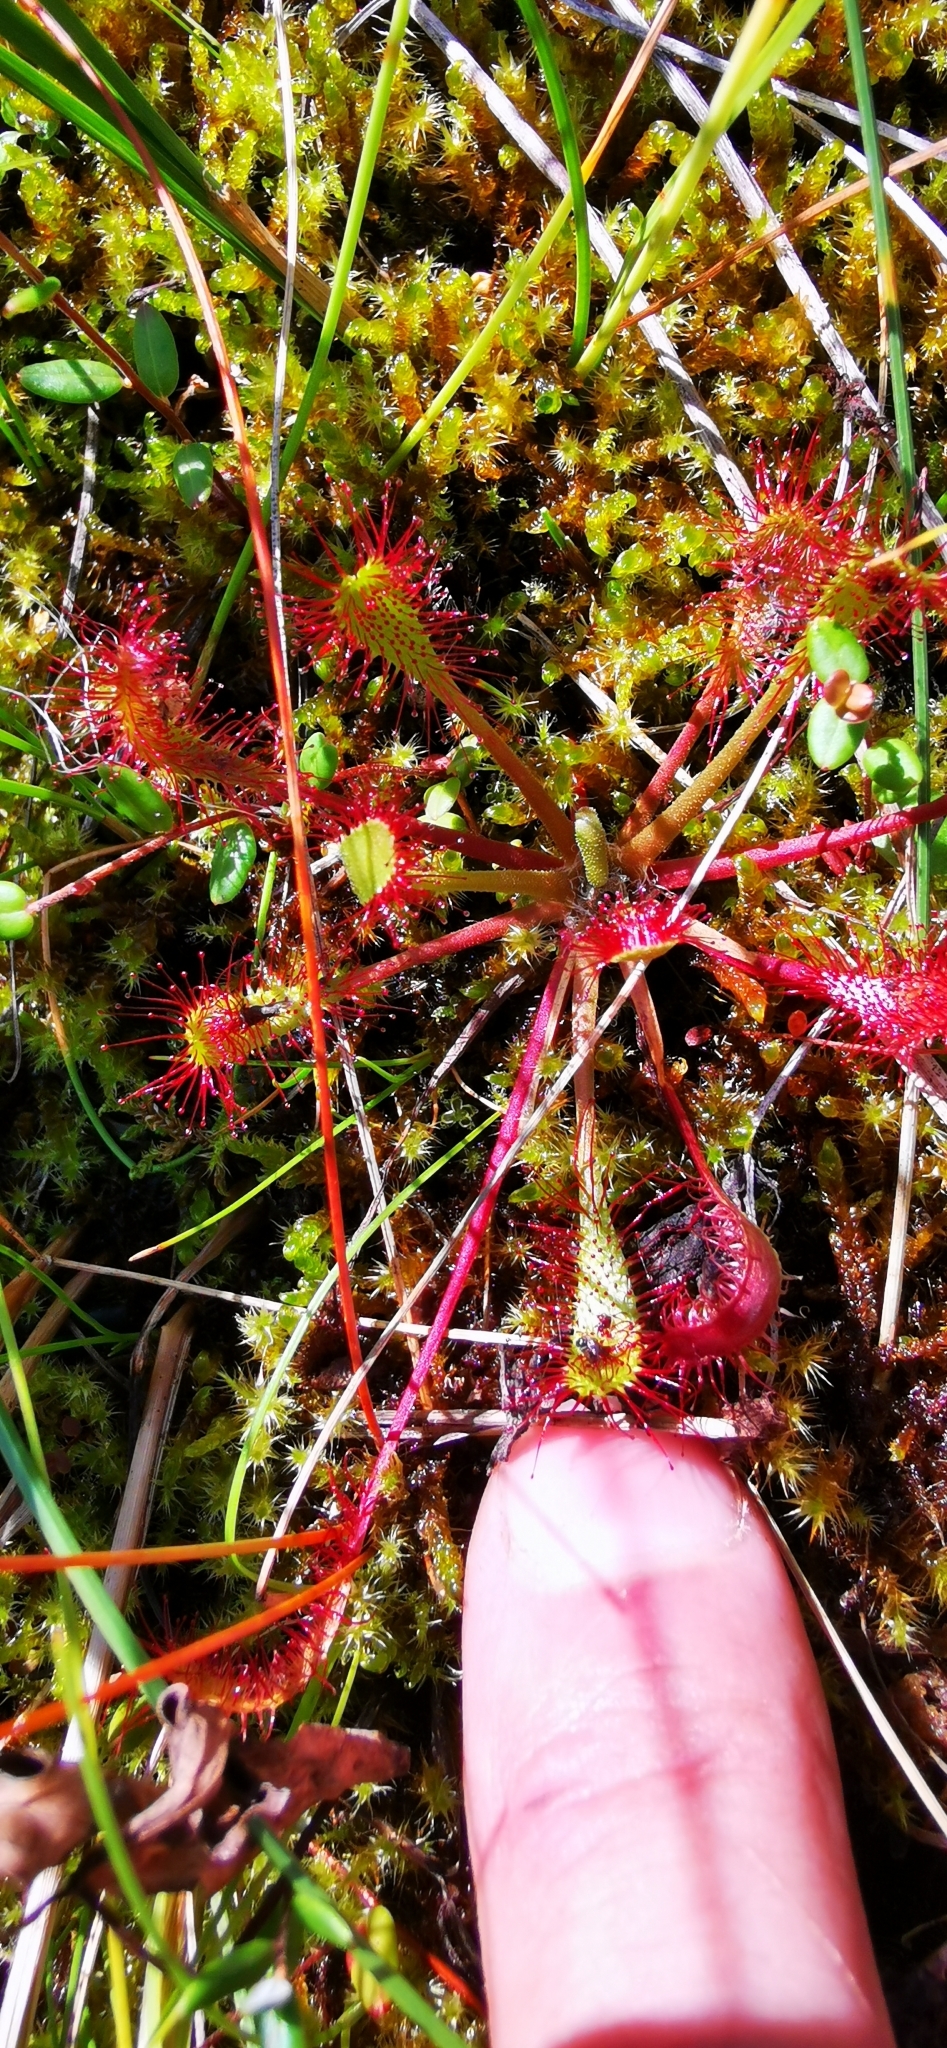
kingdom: Plantae
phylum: Tracheophyta
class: Magnoliopsida
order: Caryophyllales
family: Droseraceae
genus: Drosera
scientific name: Drosera anglica
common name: Great sundew
